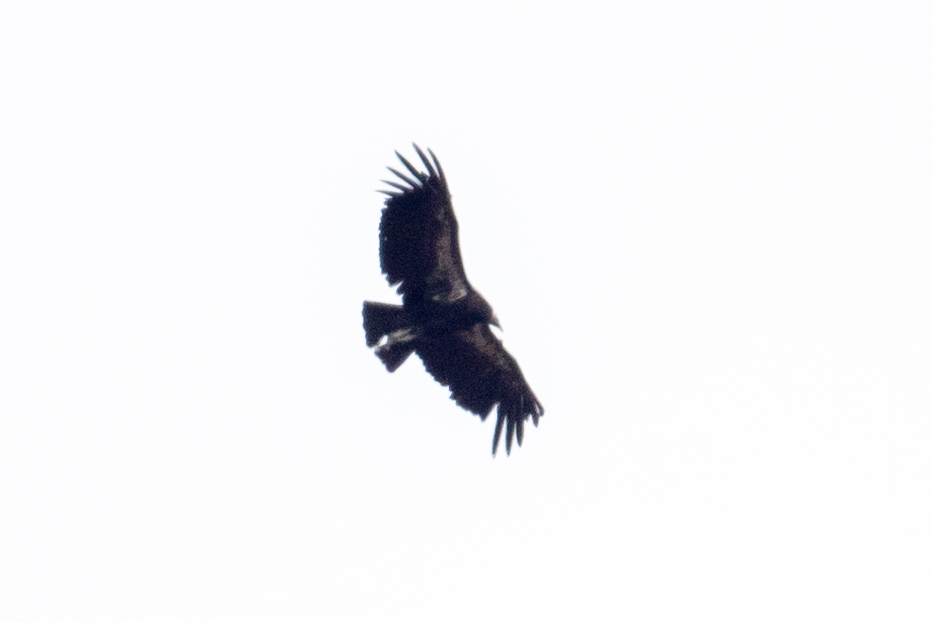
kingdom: Animalia
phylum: Chordata
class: Aves
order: Accipitriformes
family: Cathartidae
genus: Gymnogyps
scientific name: Gymnogyps californianus
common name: California condor
